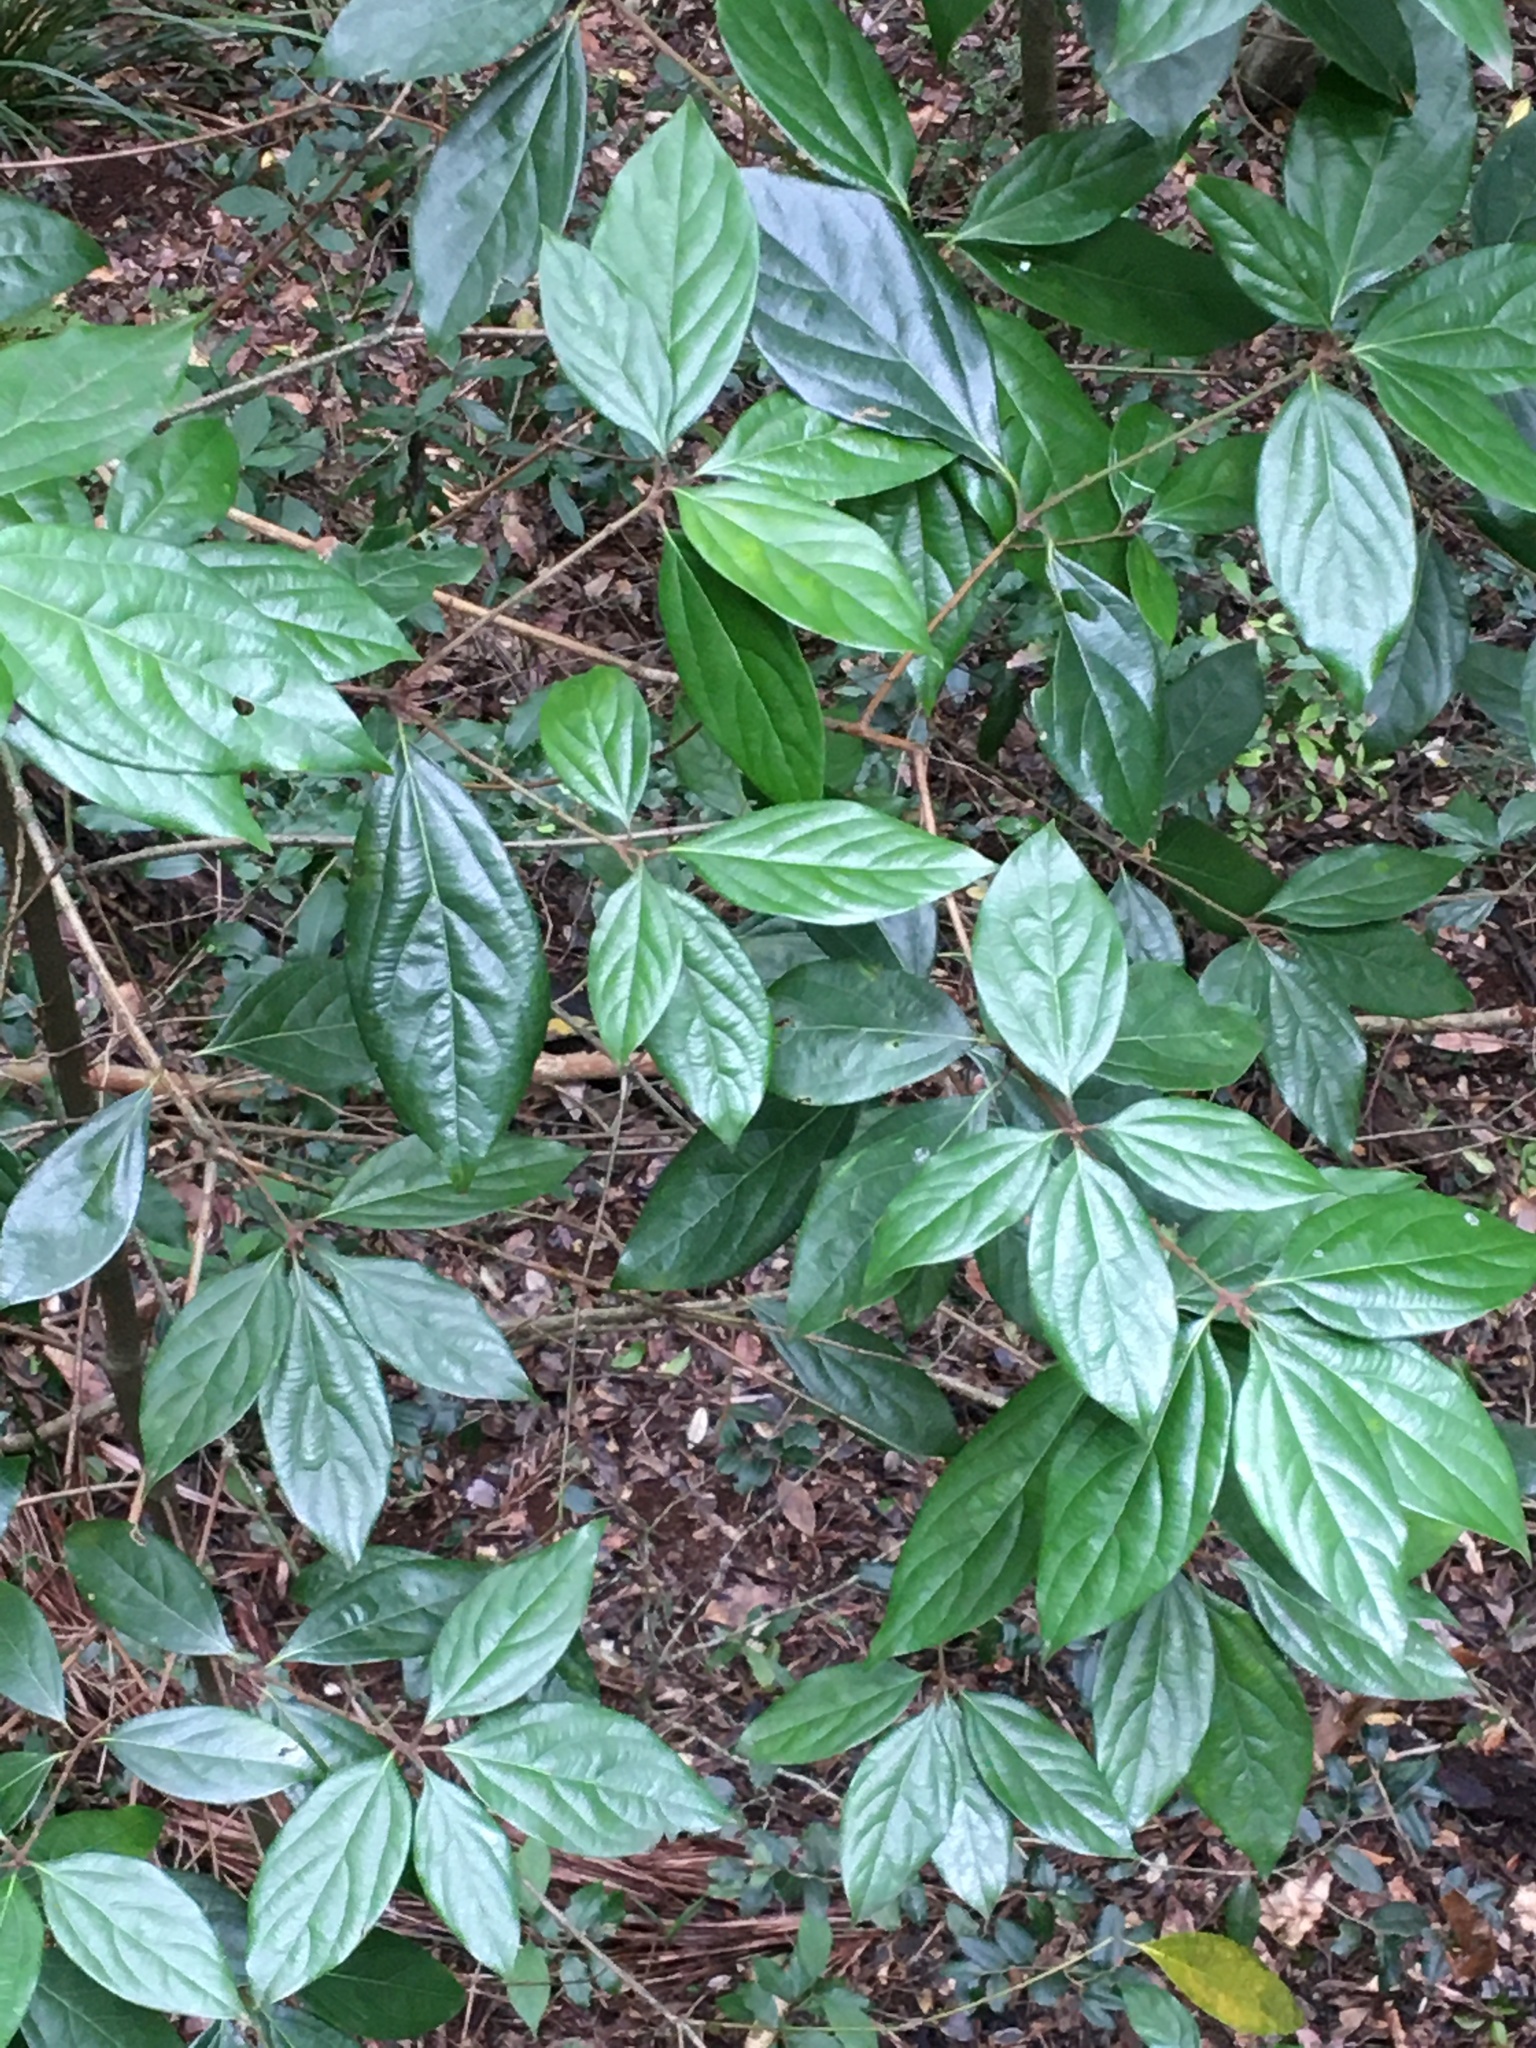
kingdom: Plantae
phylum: Tracheophyta
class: Magnoliopsida
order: Laurales
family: Lauraceae
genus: Neolitsea
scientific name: Neolitsea dealbata
